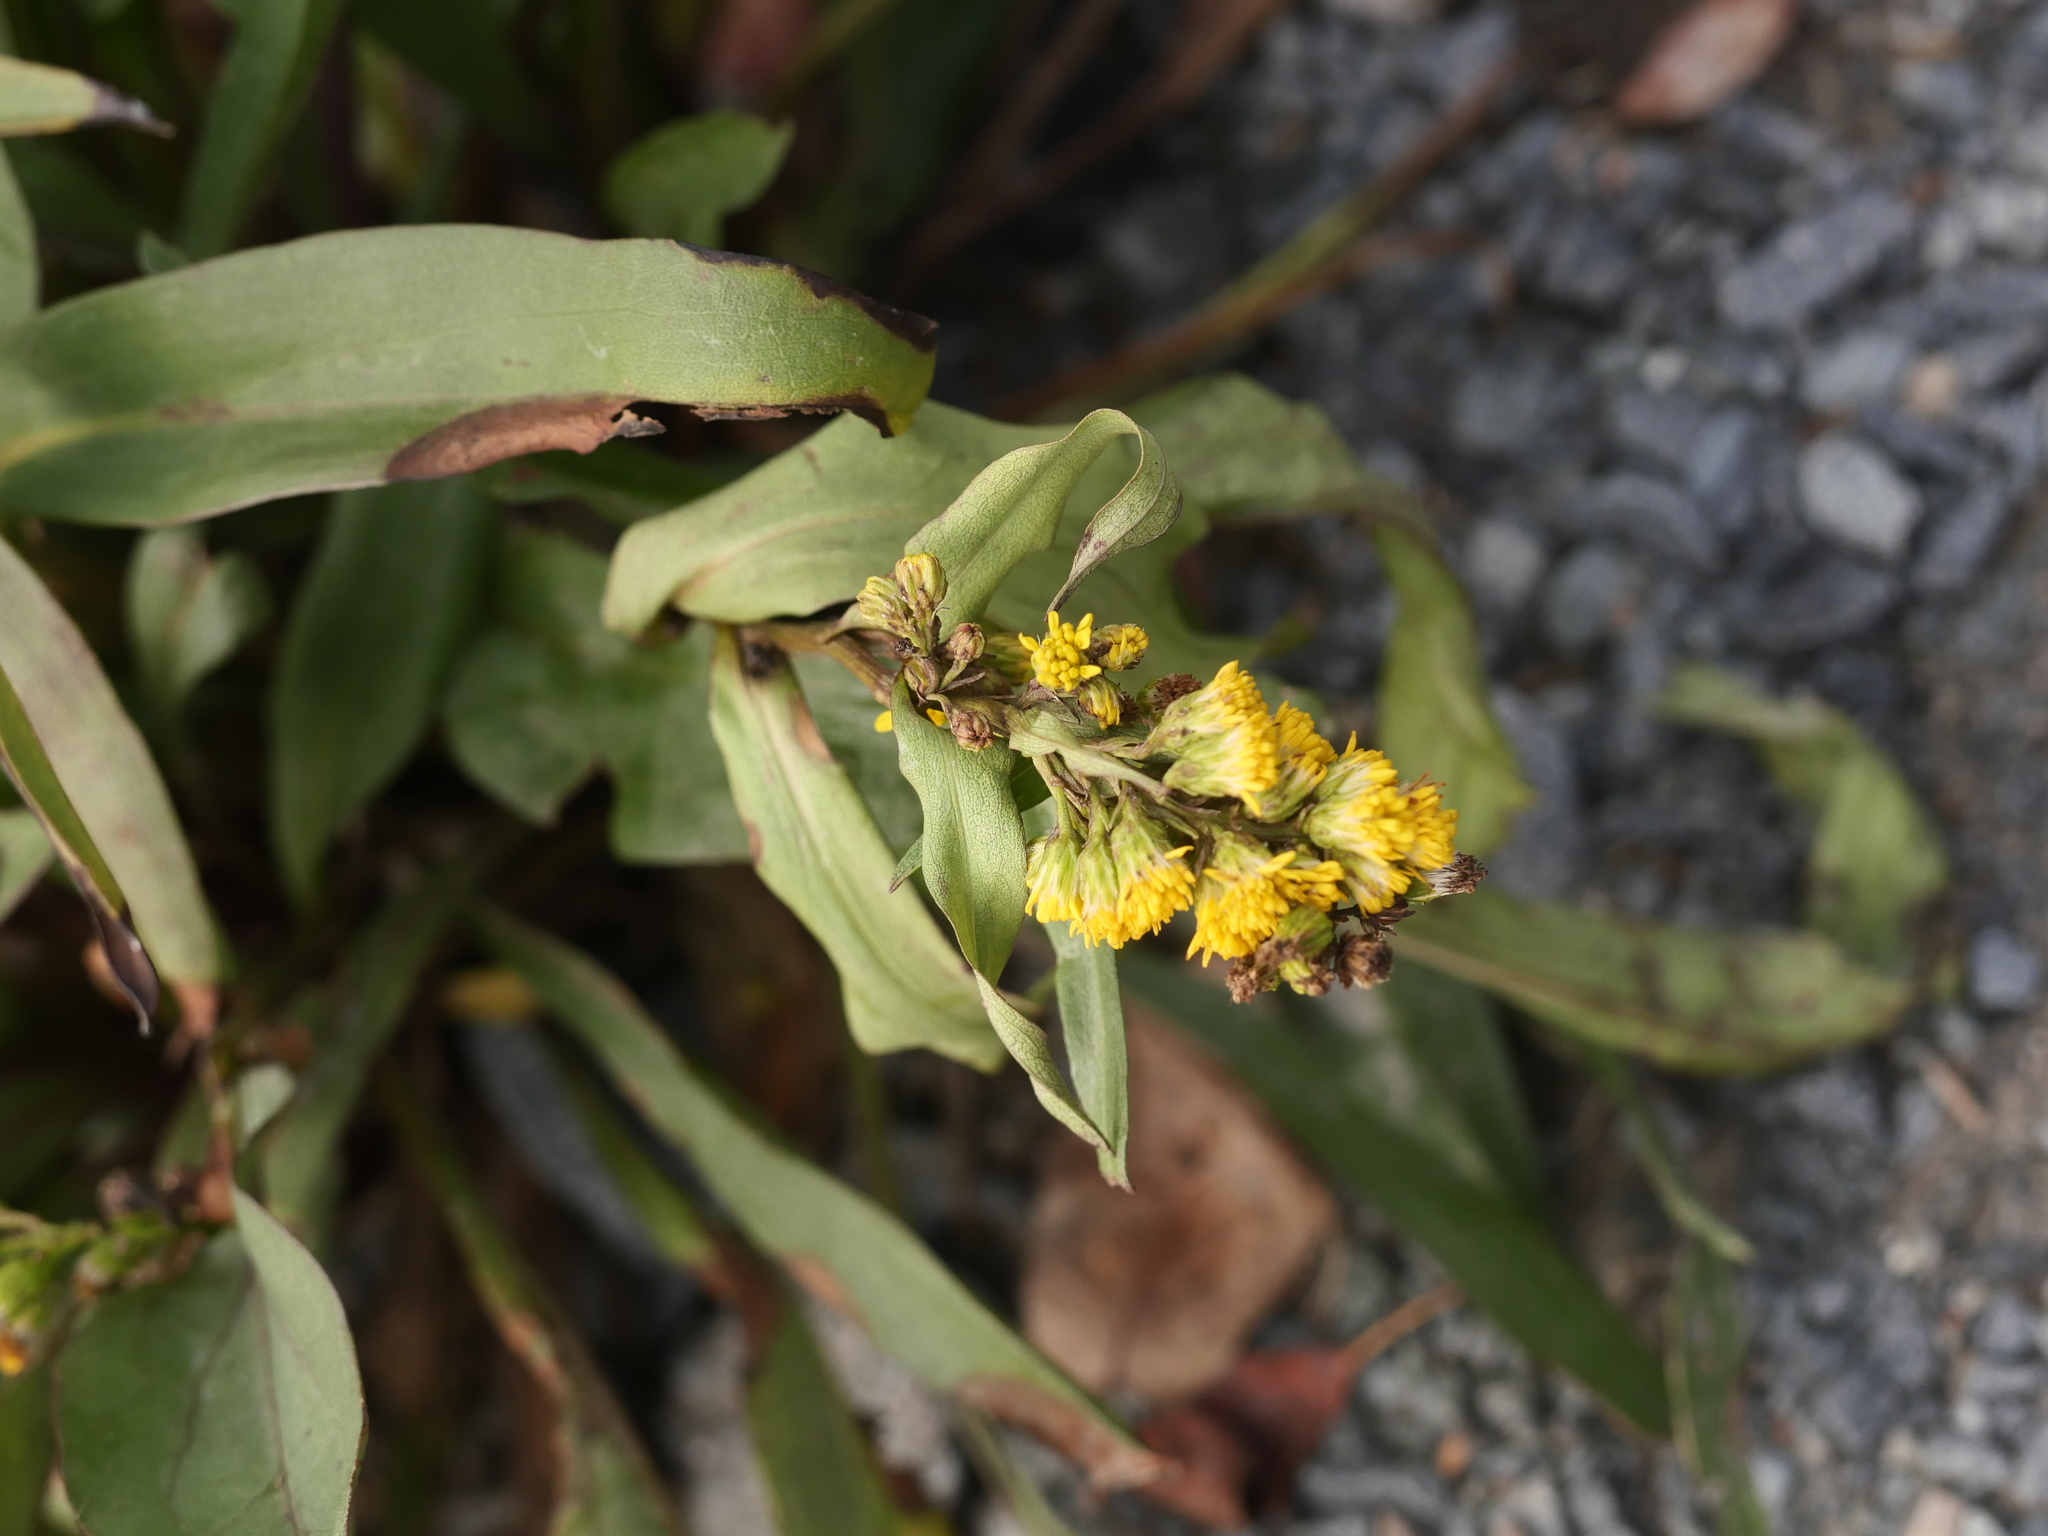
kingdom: Plantae
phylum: Tracheophyta
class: Magnoliopsida
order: Asterales
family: Asteraceae
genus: Solidago
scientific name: Solidago sempervirens
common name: Salt-marsh goldenrod
